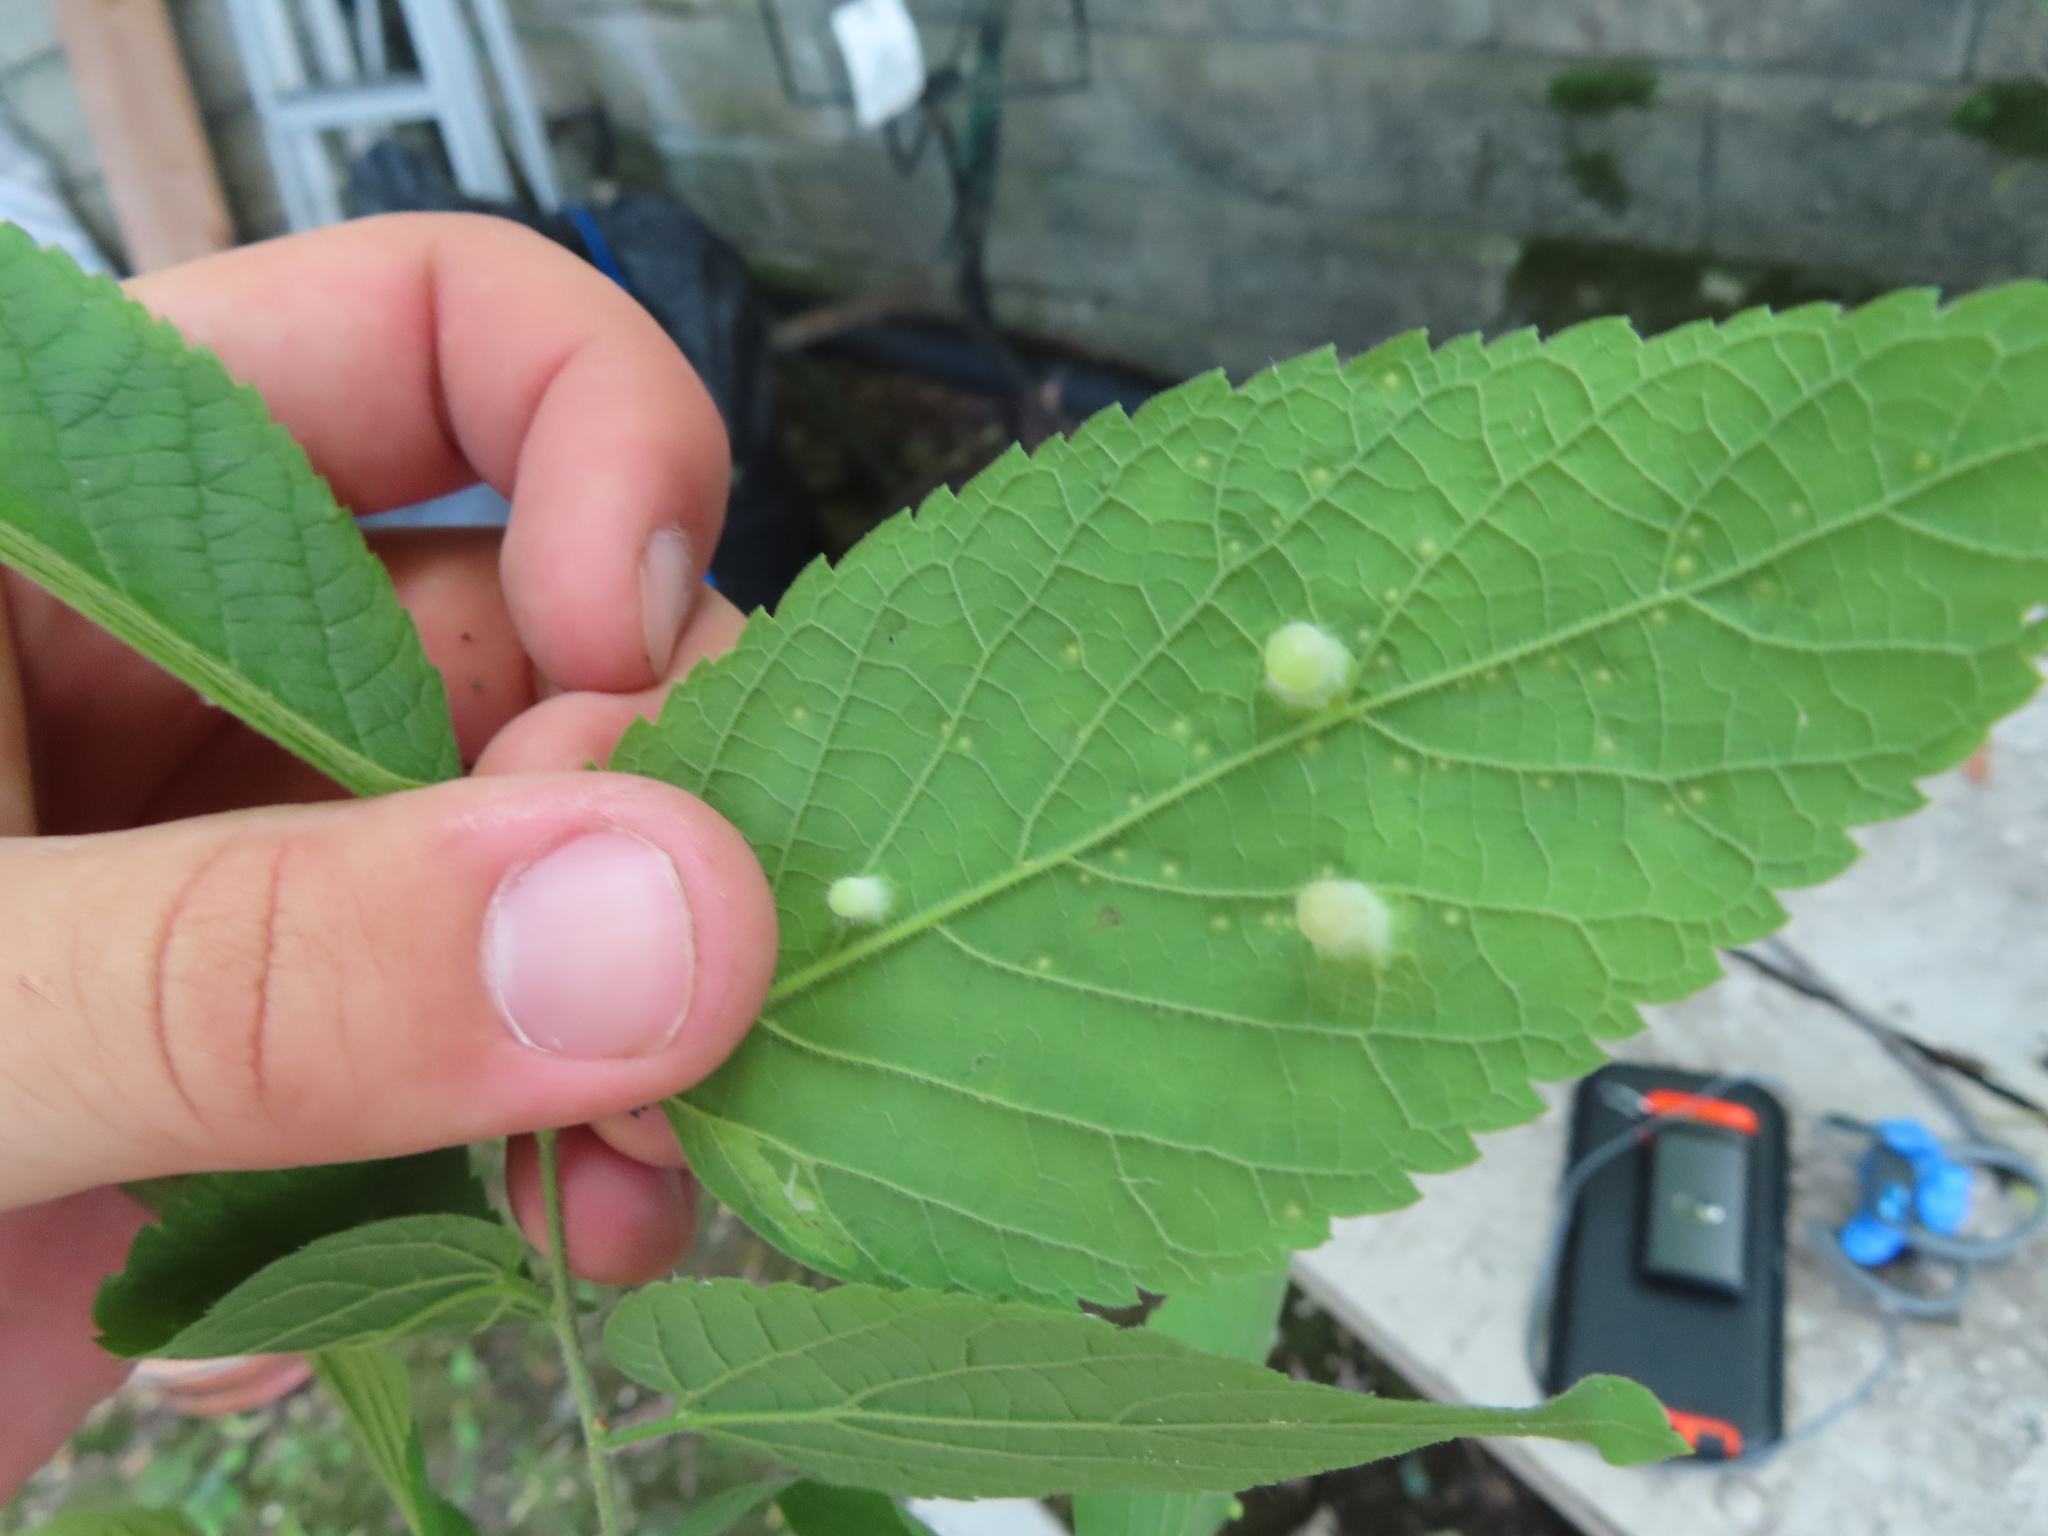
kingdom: Animalia
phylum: Arthropoda
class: Insecta
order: Hemiptera
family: Aphalaridae
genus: Pachypsylla
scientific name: Pachypsylla celtidismamma
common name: Hackberry nipplegall psyllid
